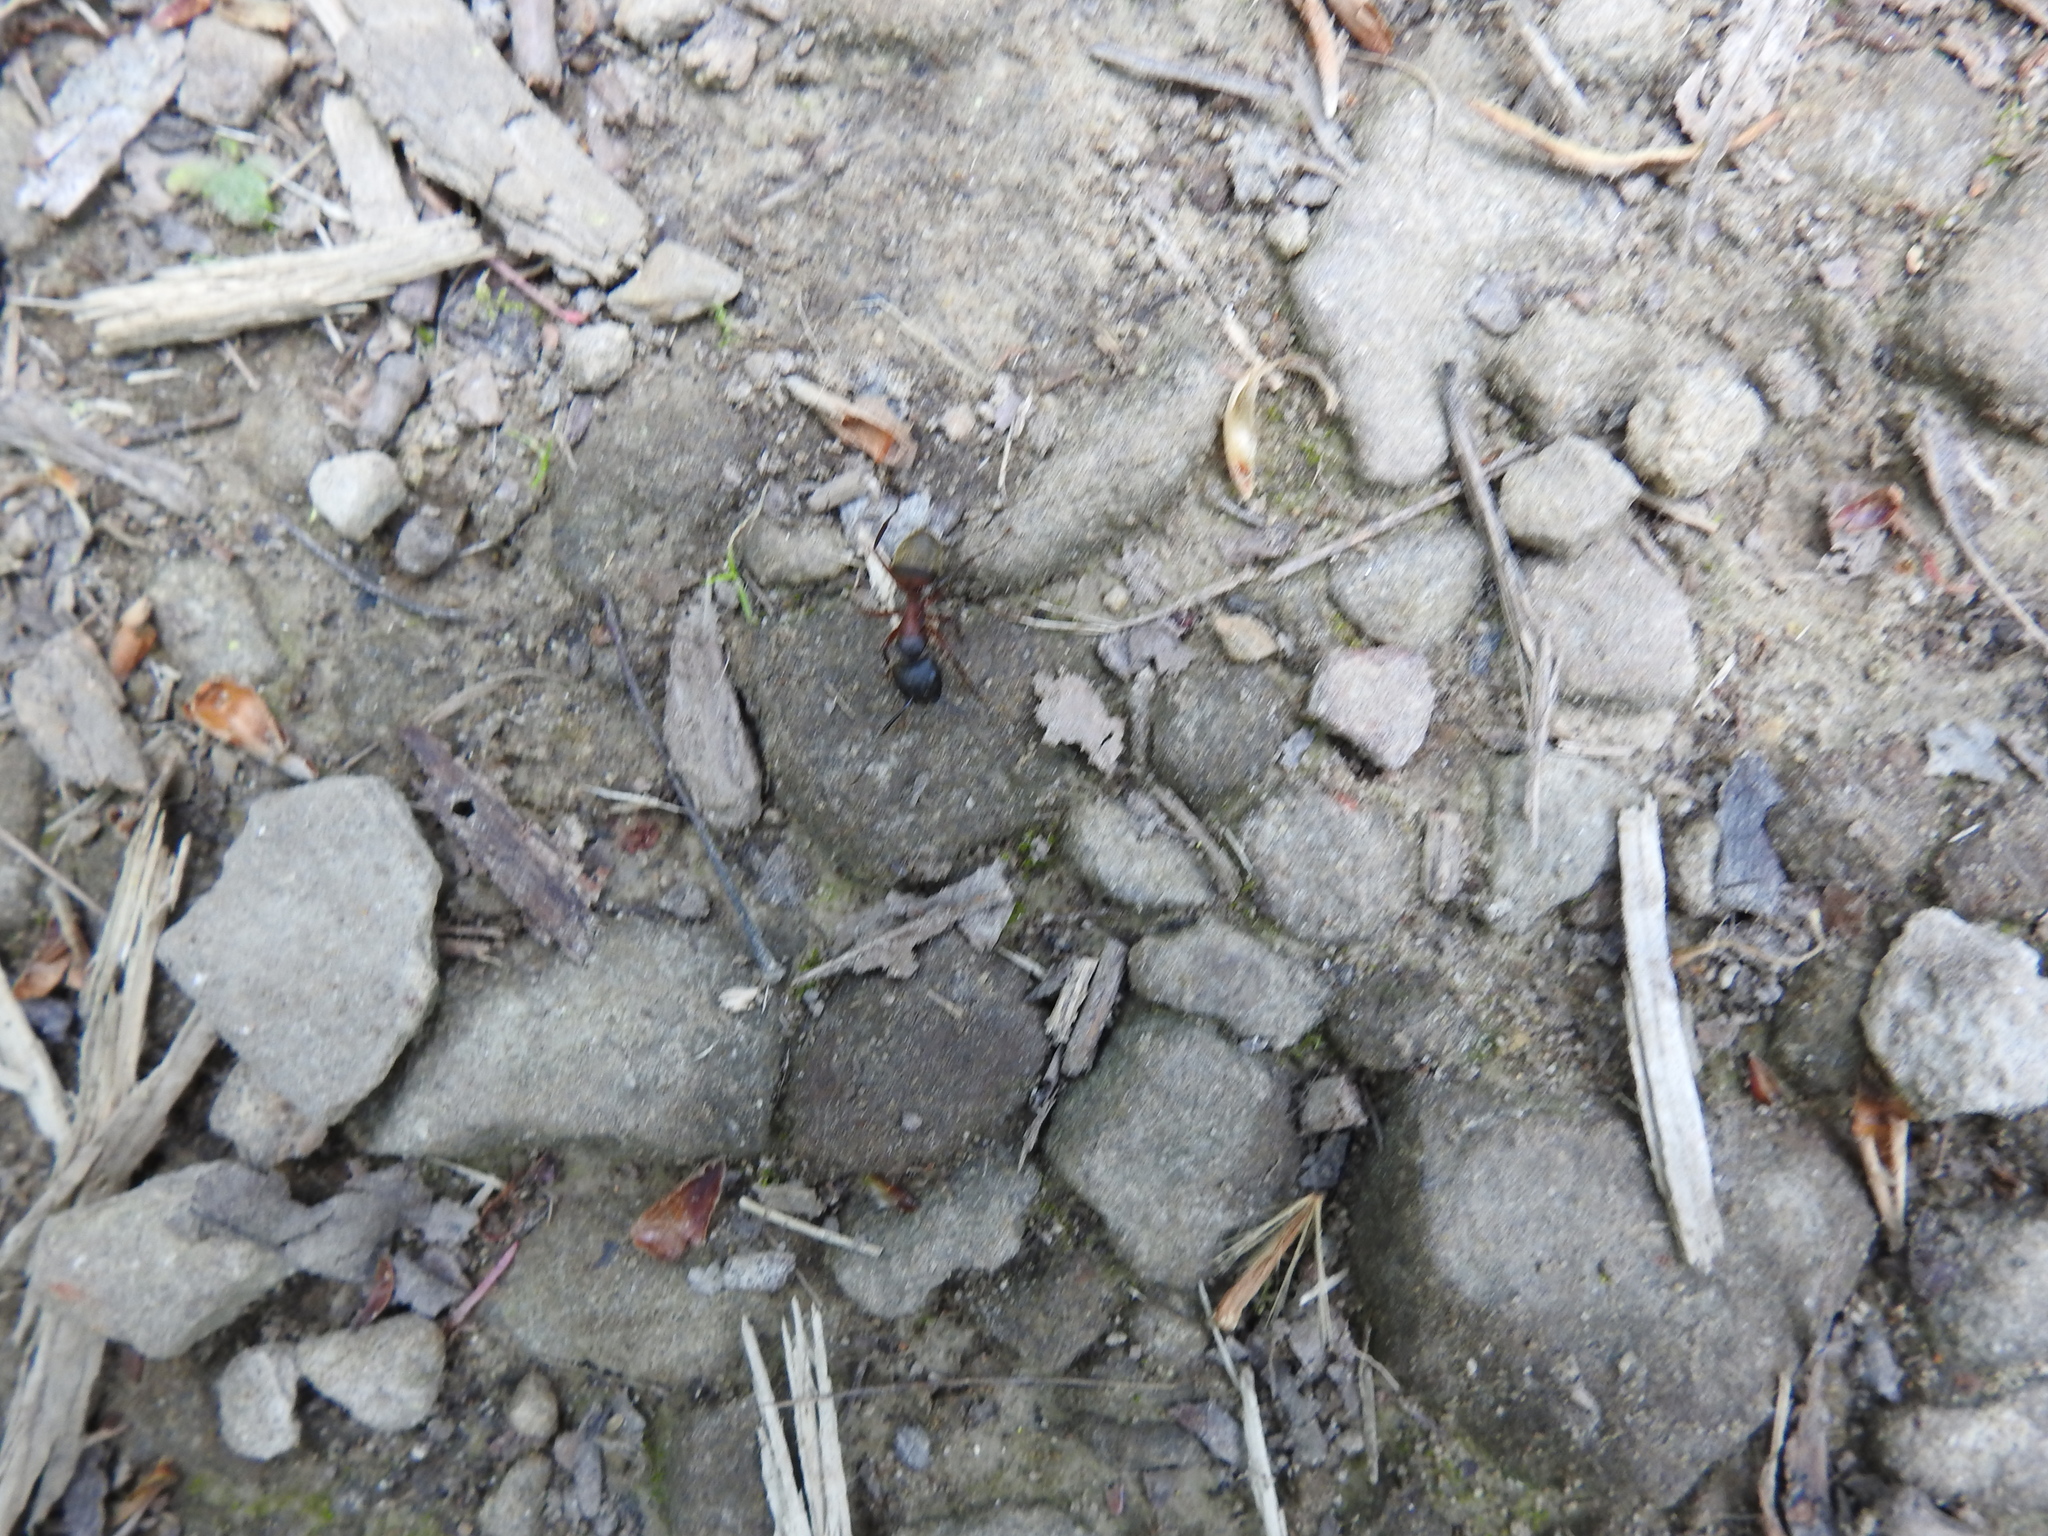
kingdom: Animalia
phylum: Arthropoda
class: Insecta
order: Hymenoptera
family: Formicidae
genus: Camponotus
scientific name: Camponotus chromaiodes
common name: Red carpenter ant
